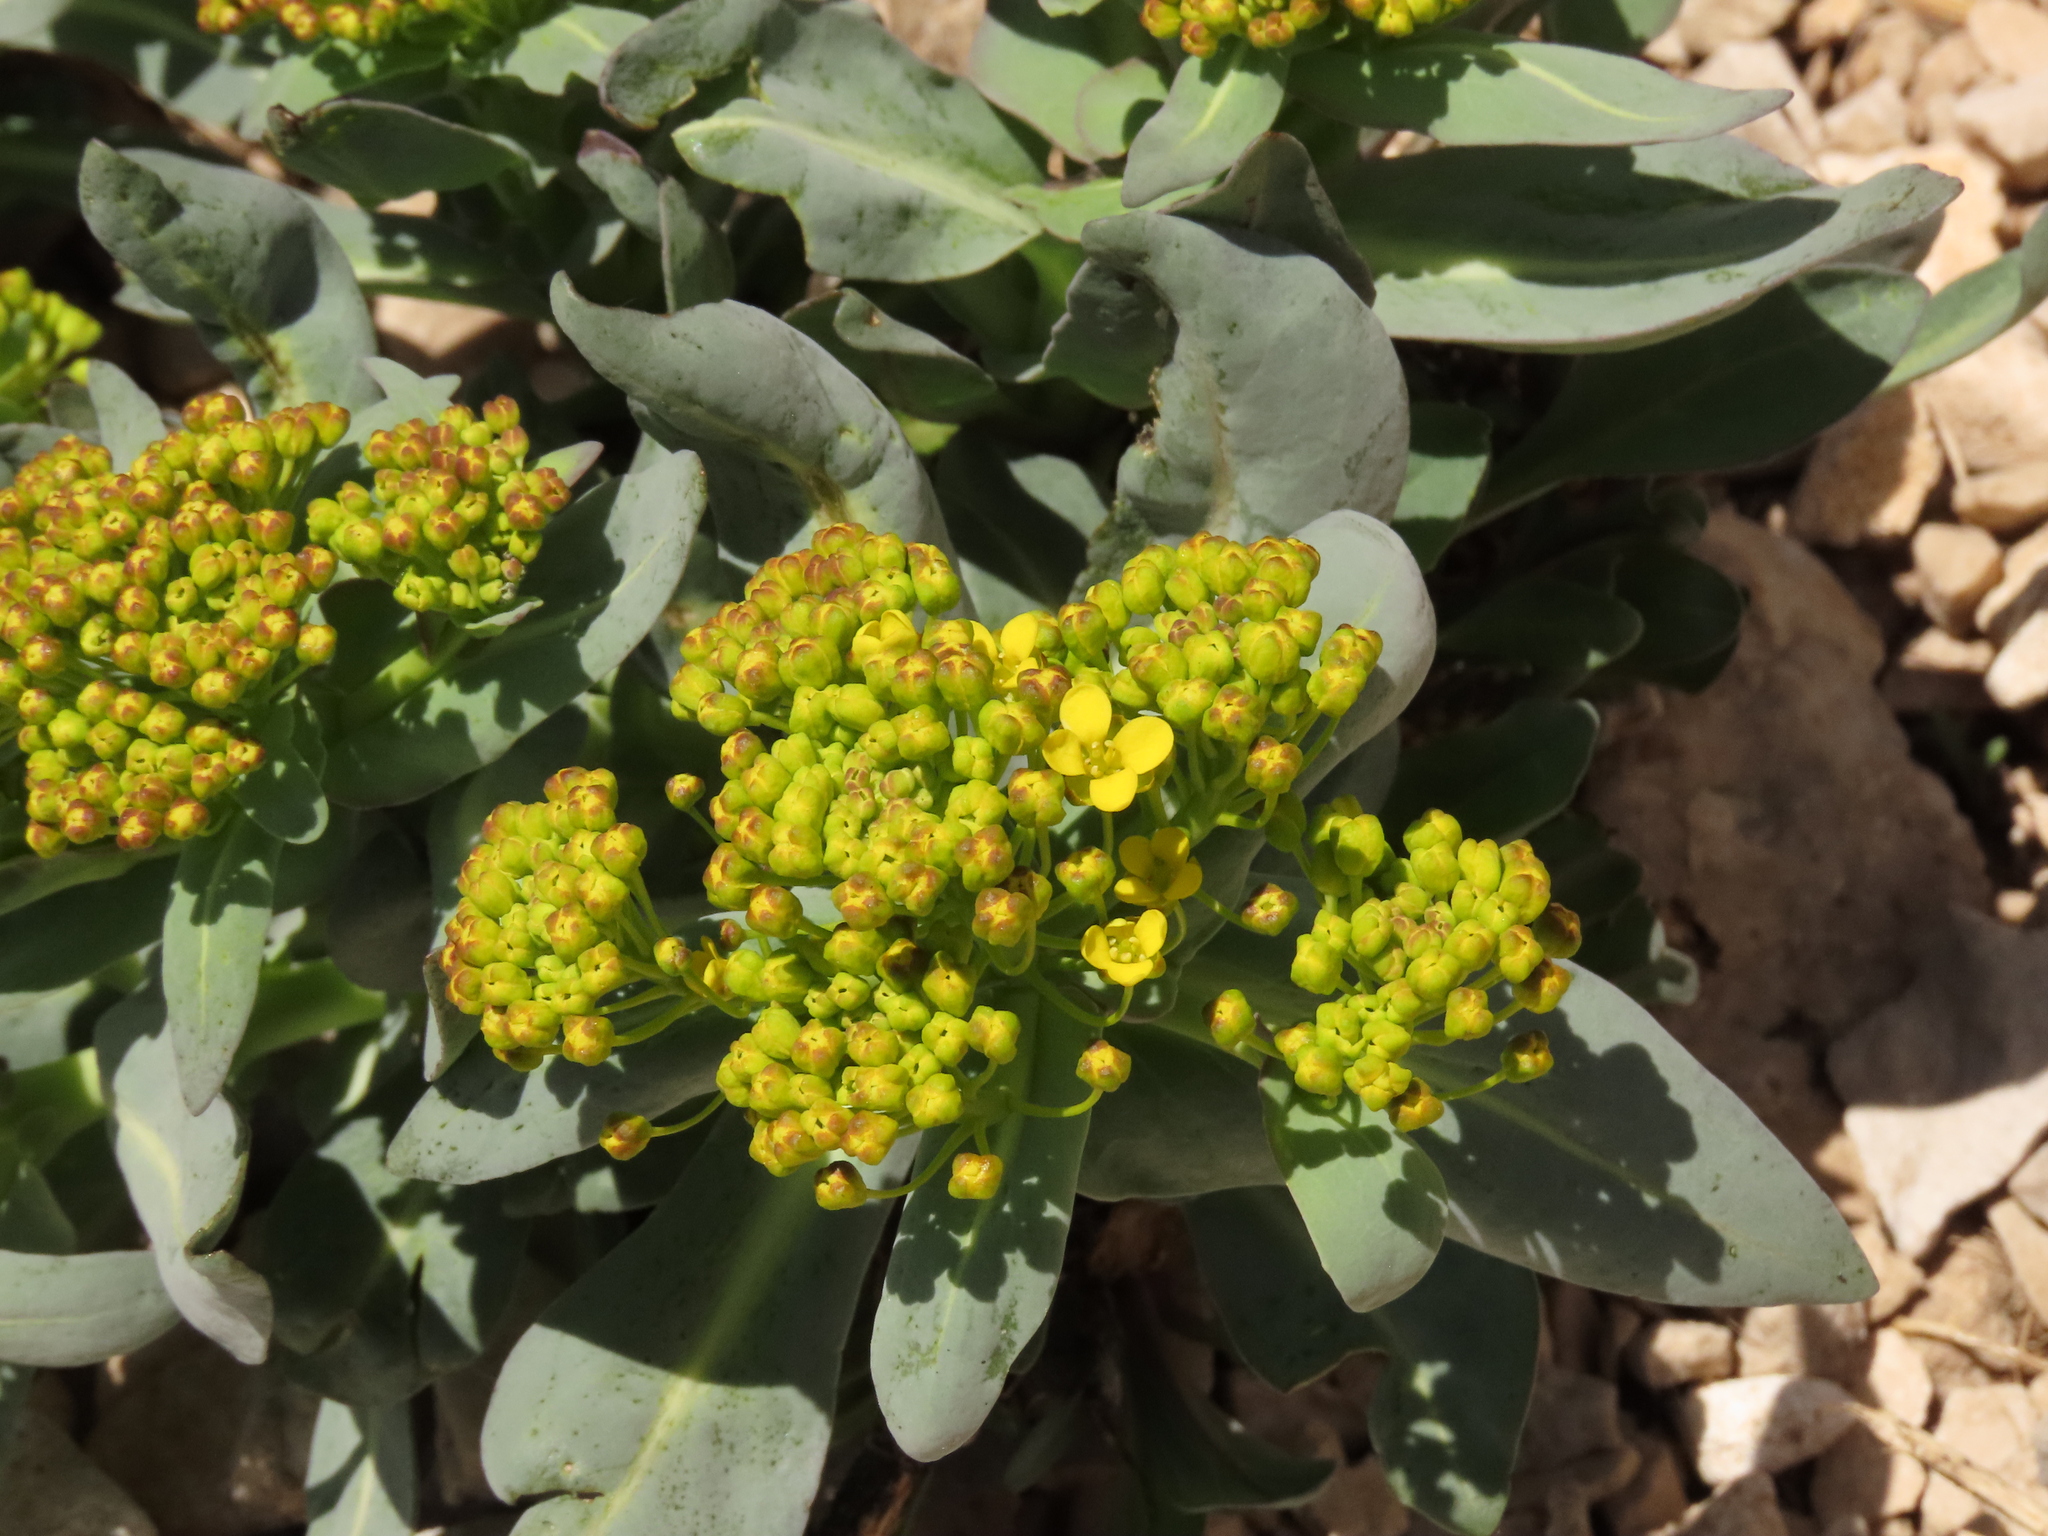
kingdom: Plantae
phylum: Tracheophyta
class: Magnoliopsida
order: Brassicales
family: Brassicaceae
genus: Isatis
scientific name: Isatis apennina
